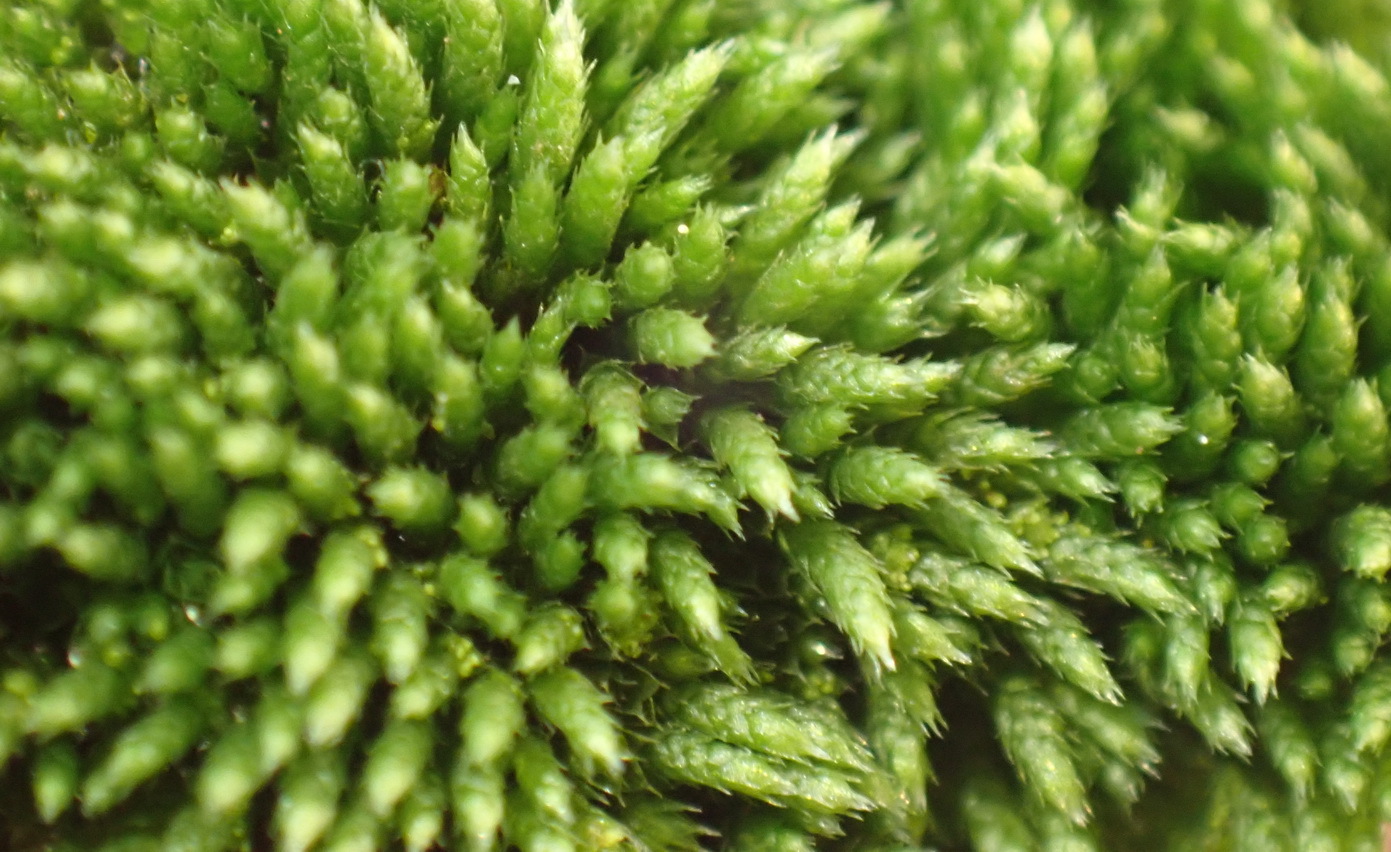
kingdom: Plantae
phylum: Bryophyta
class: Bryopsida
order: Bryales
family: Bryaceae
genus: Bryum
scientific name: Bryum argenteum
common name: Silver-moss
